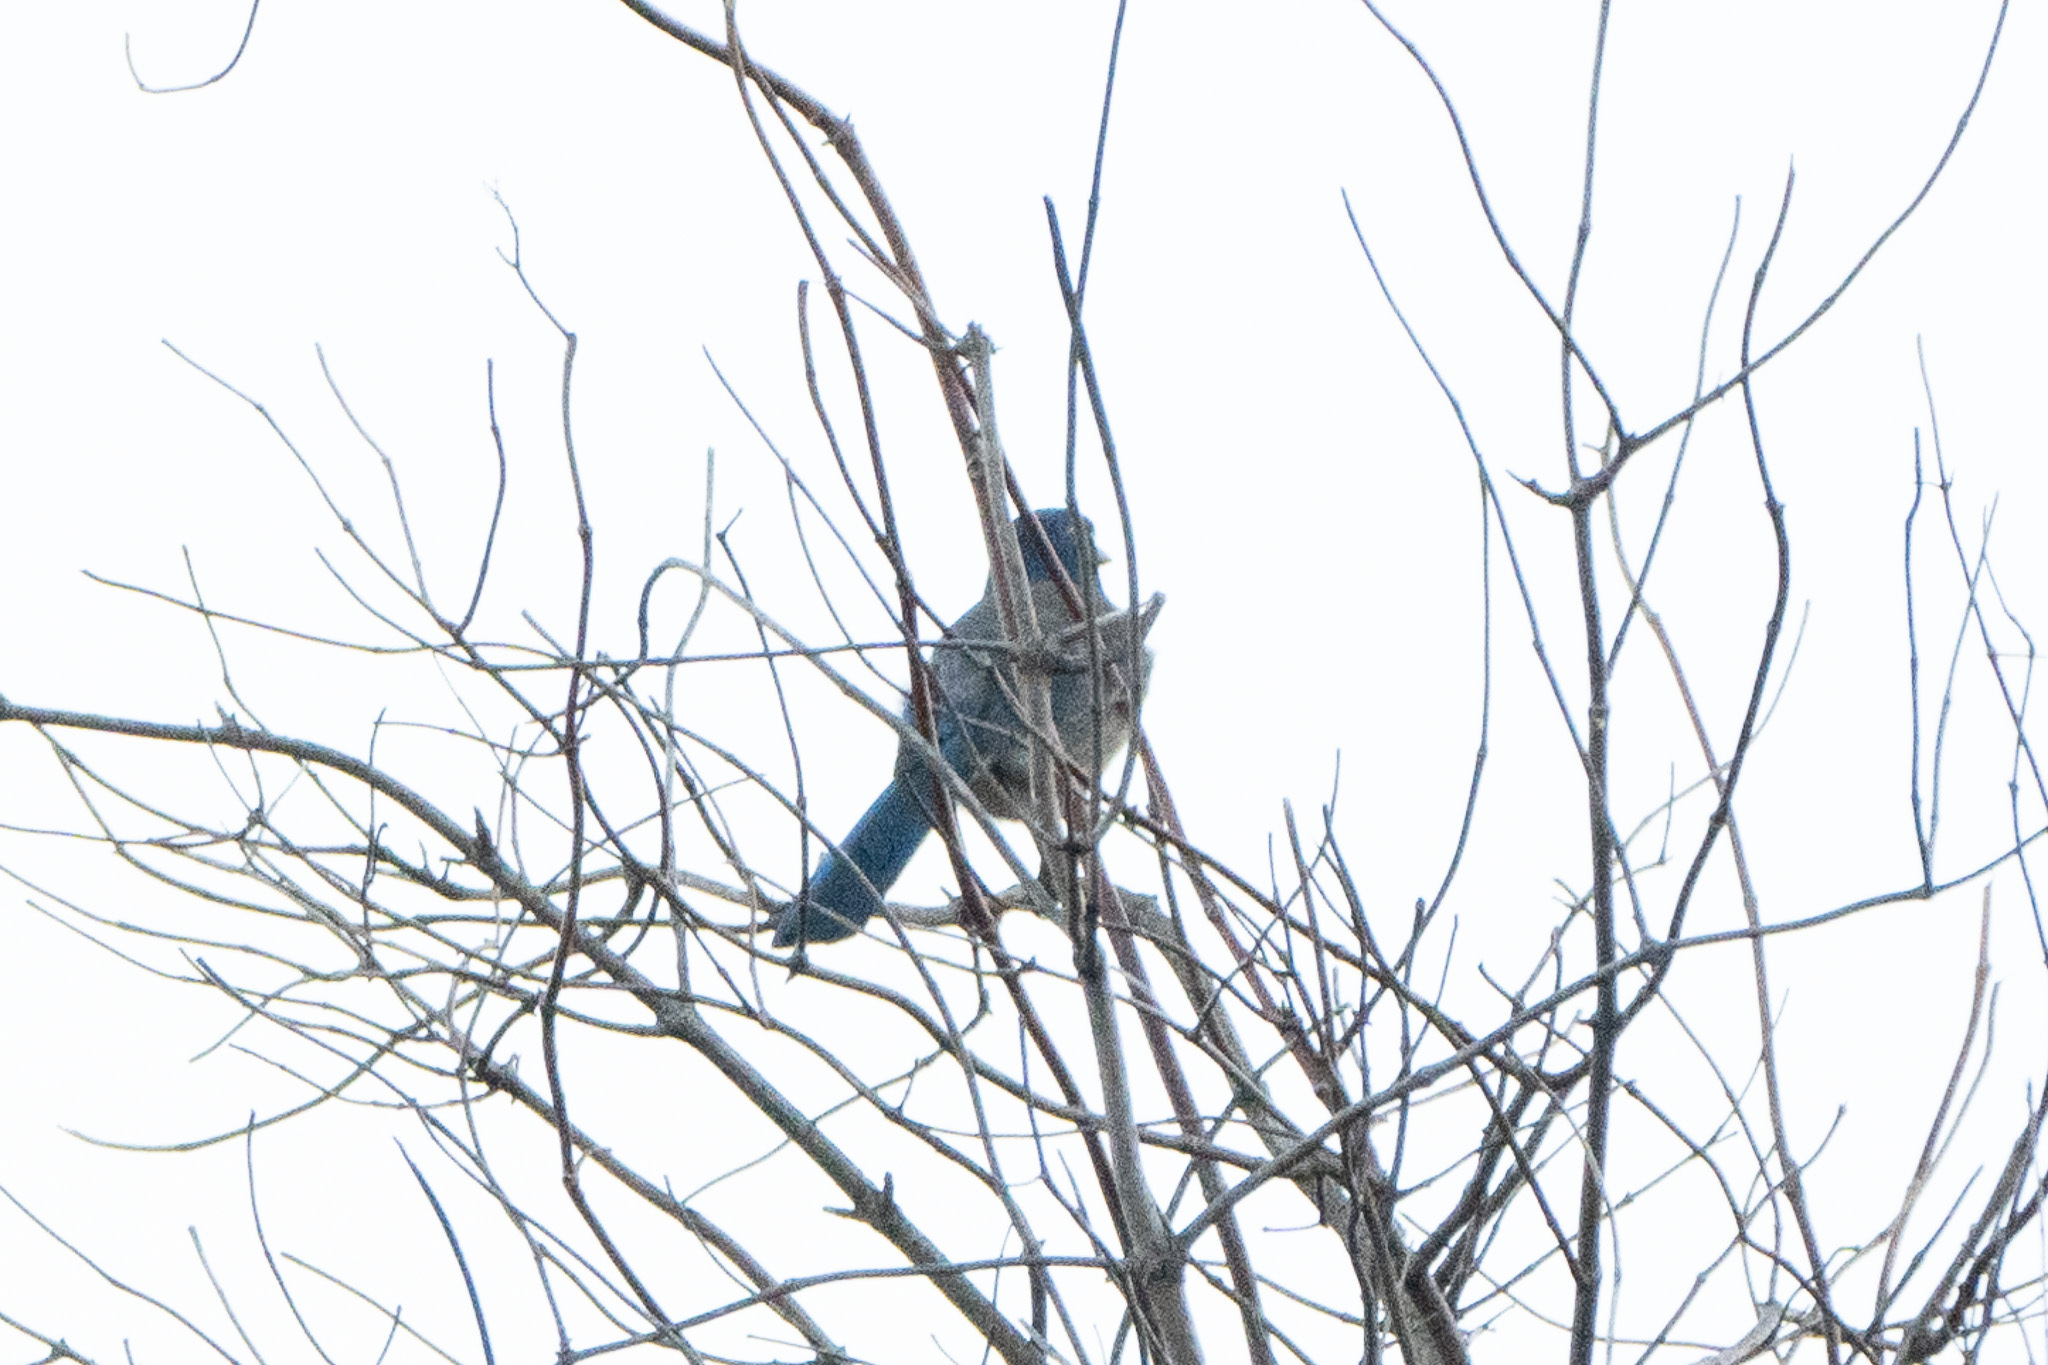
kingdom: Animalia
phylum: Chordata
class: Aves
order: Passeriformes
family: Corvidae
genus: Aphelocoma
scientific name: Aphelocoma californica
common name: California scrub-jay
